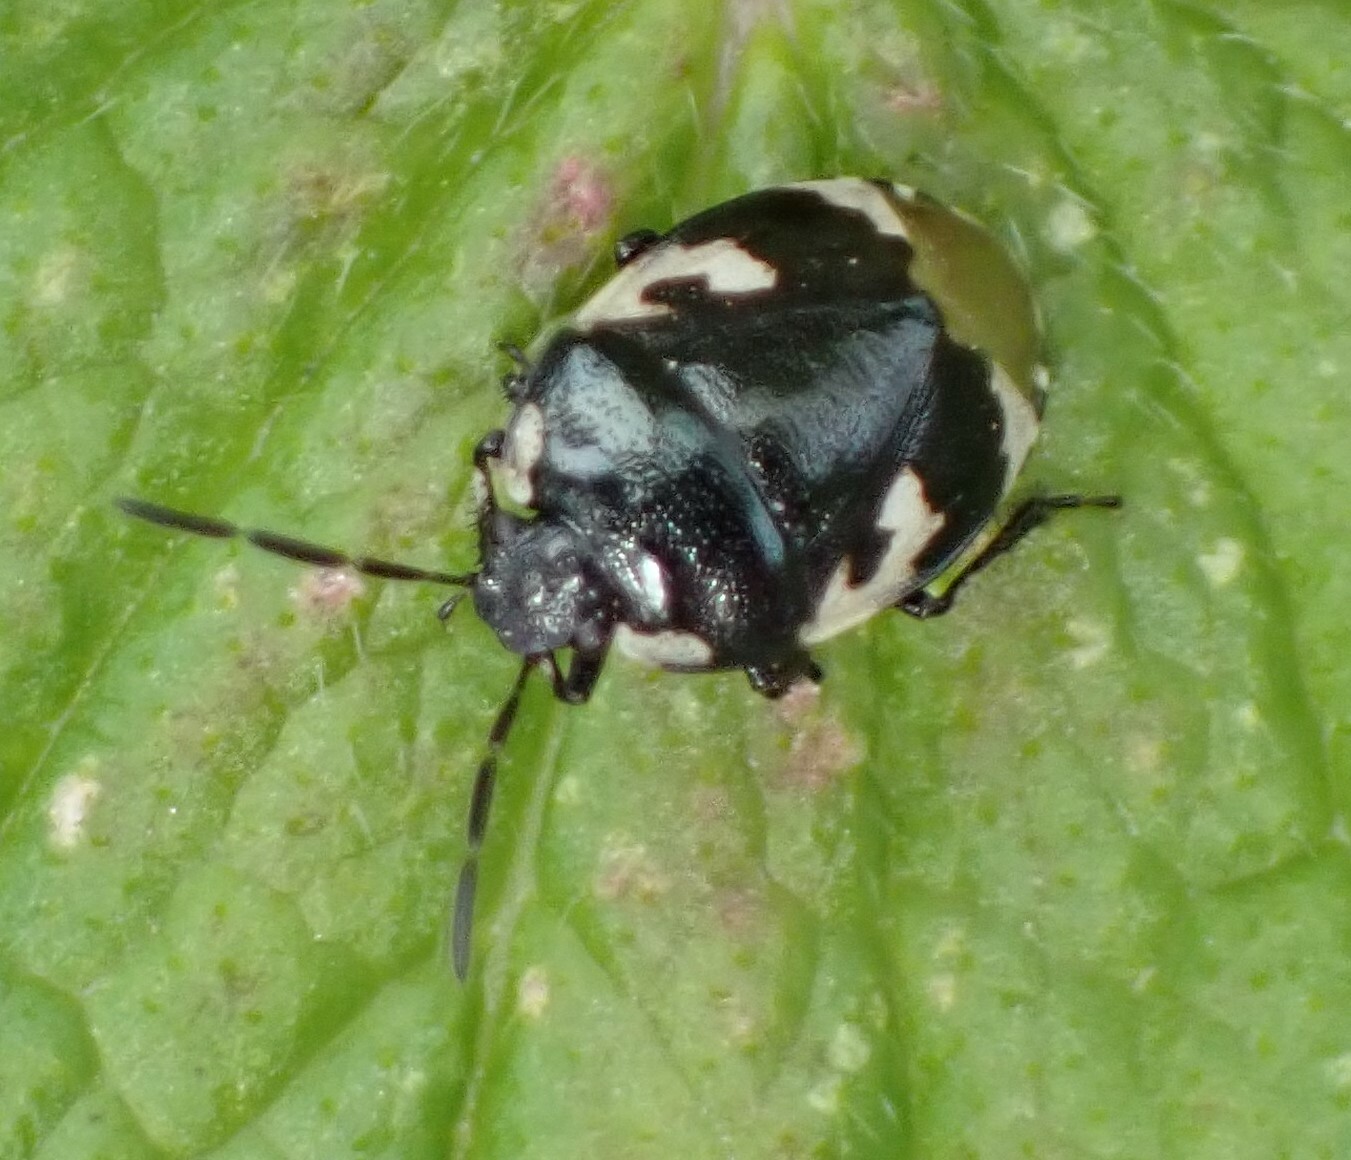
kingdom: Animalia
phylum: Arthropoda
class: Insecta
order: Hemiptera
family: Cydnidae
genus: Tritomegas
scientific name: Tritomegas bicolor
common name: Pied shieldbug
